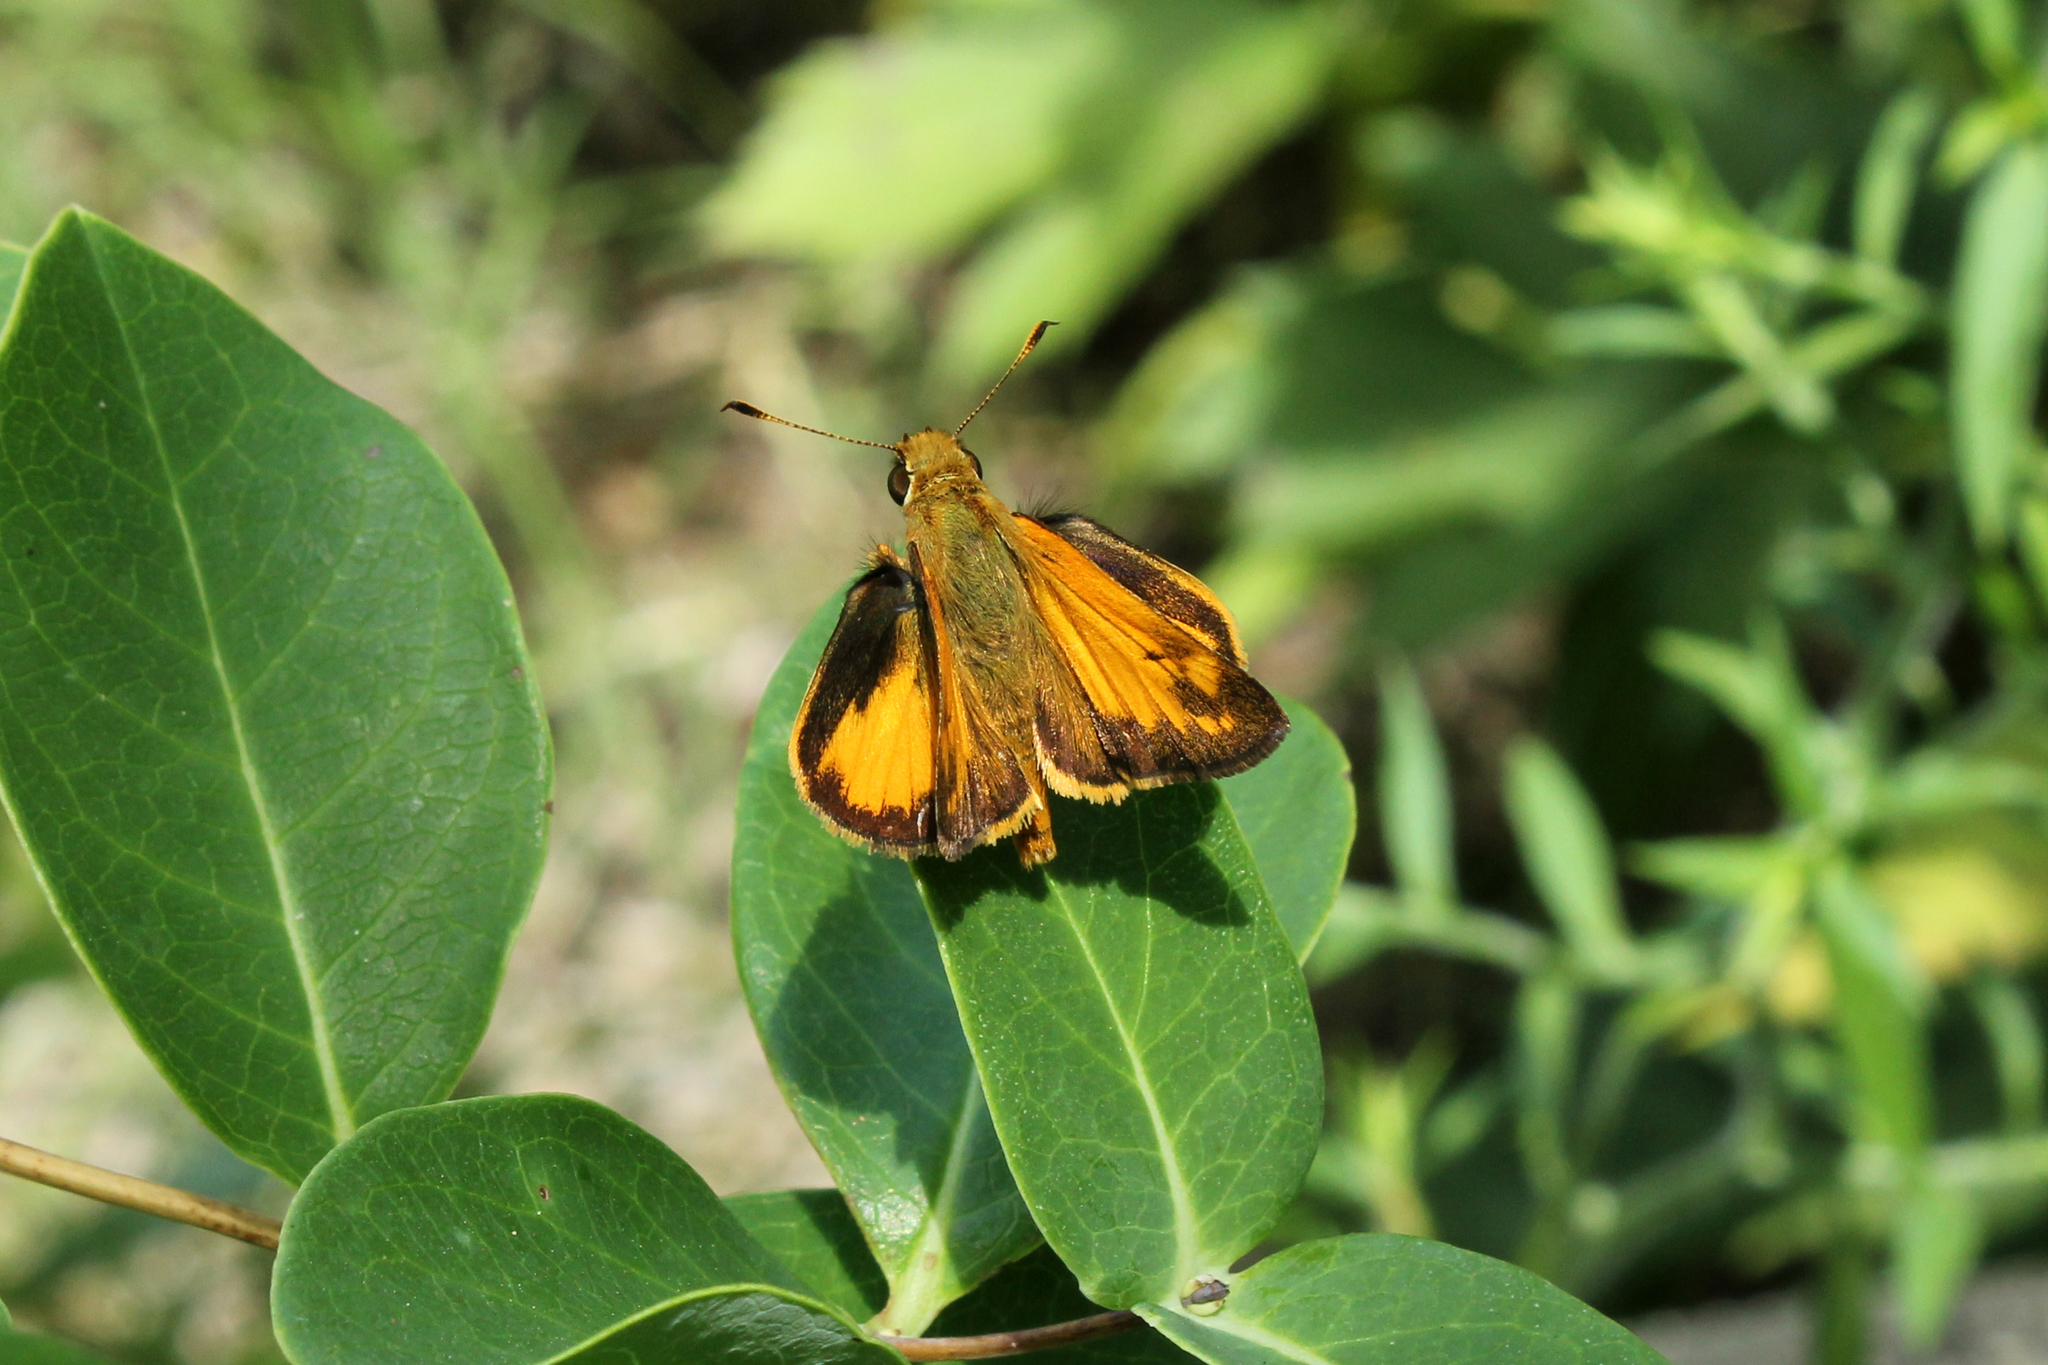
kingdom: Animalia
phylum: Arthropoda
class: Insecta
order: Lepidoptera
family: Hesperiidae
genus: Lon
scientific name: Lon zabulon
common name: Zabulon skipper
